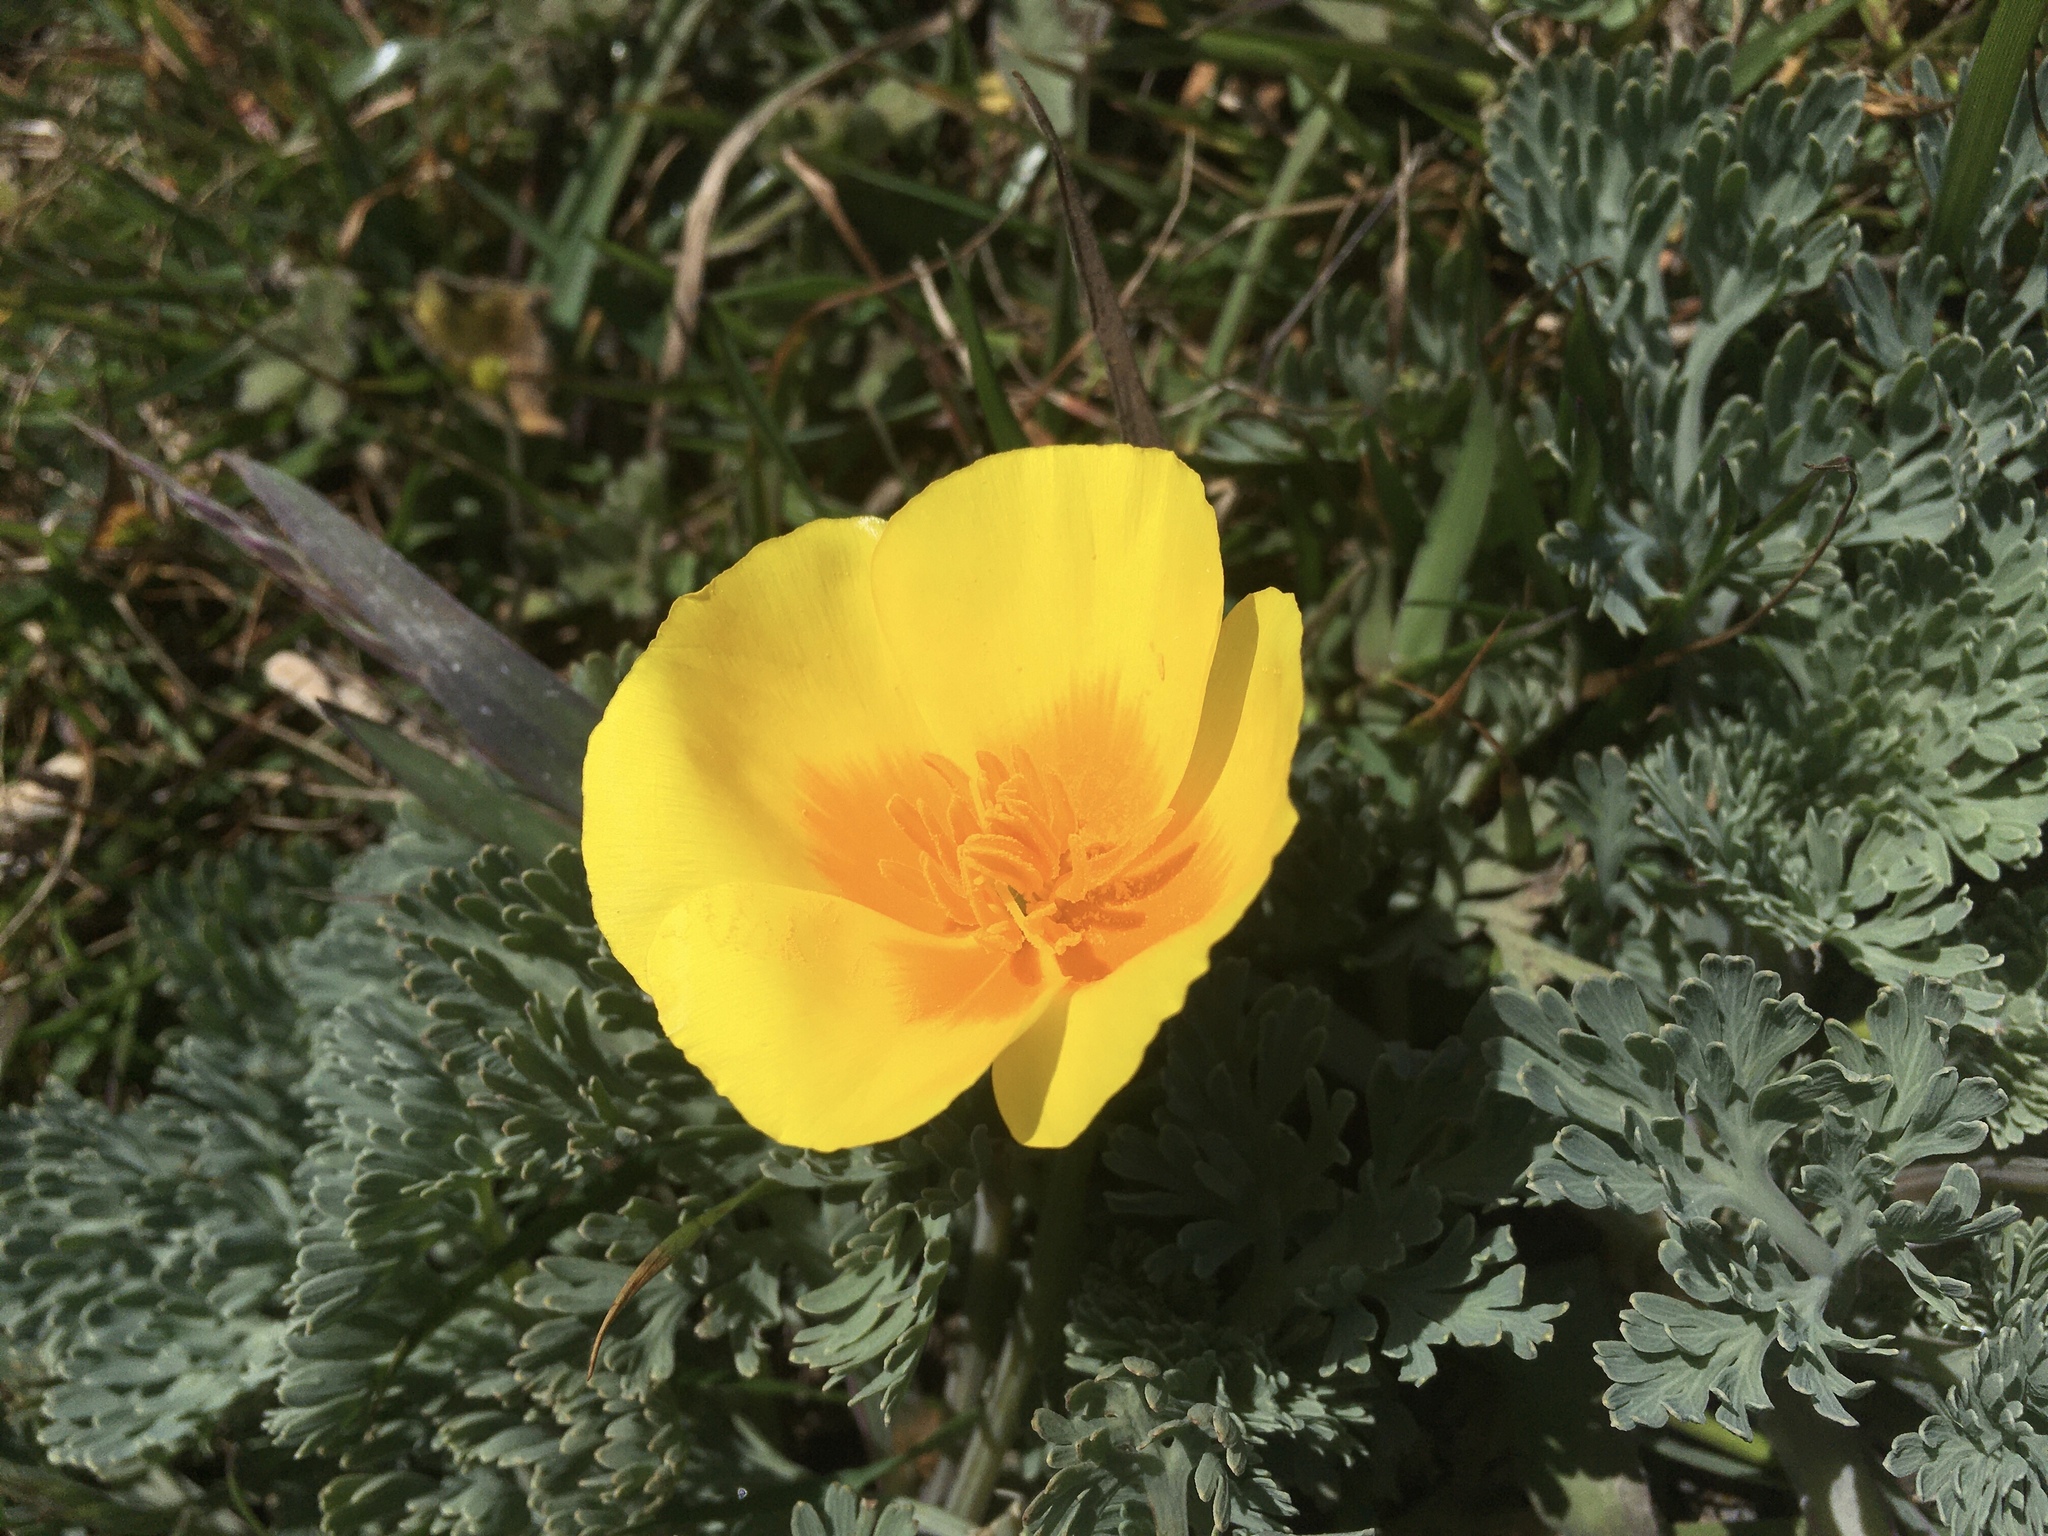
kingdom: Plantae
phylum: Tracheophyta
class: Magnoliopsida
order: Ranunculales
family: Papaveraceae
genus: Eschscholzia
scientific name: Eschscholzia californica
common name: California poppy
